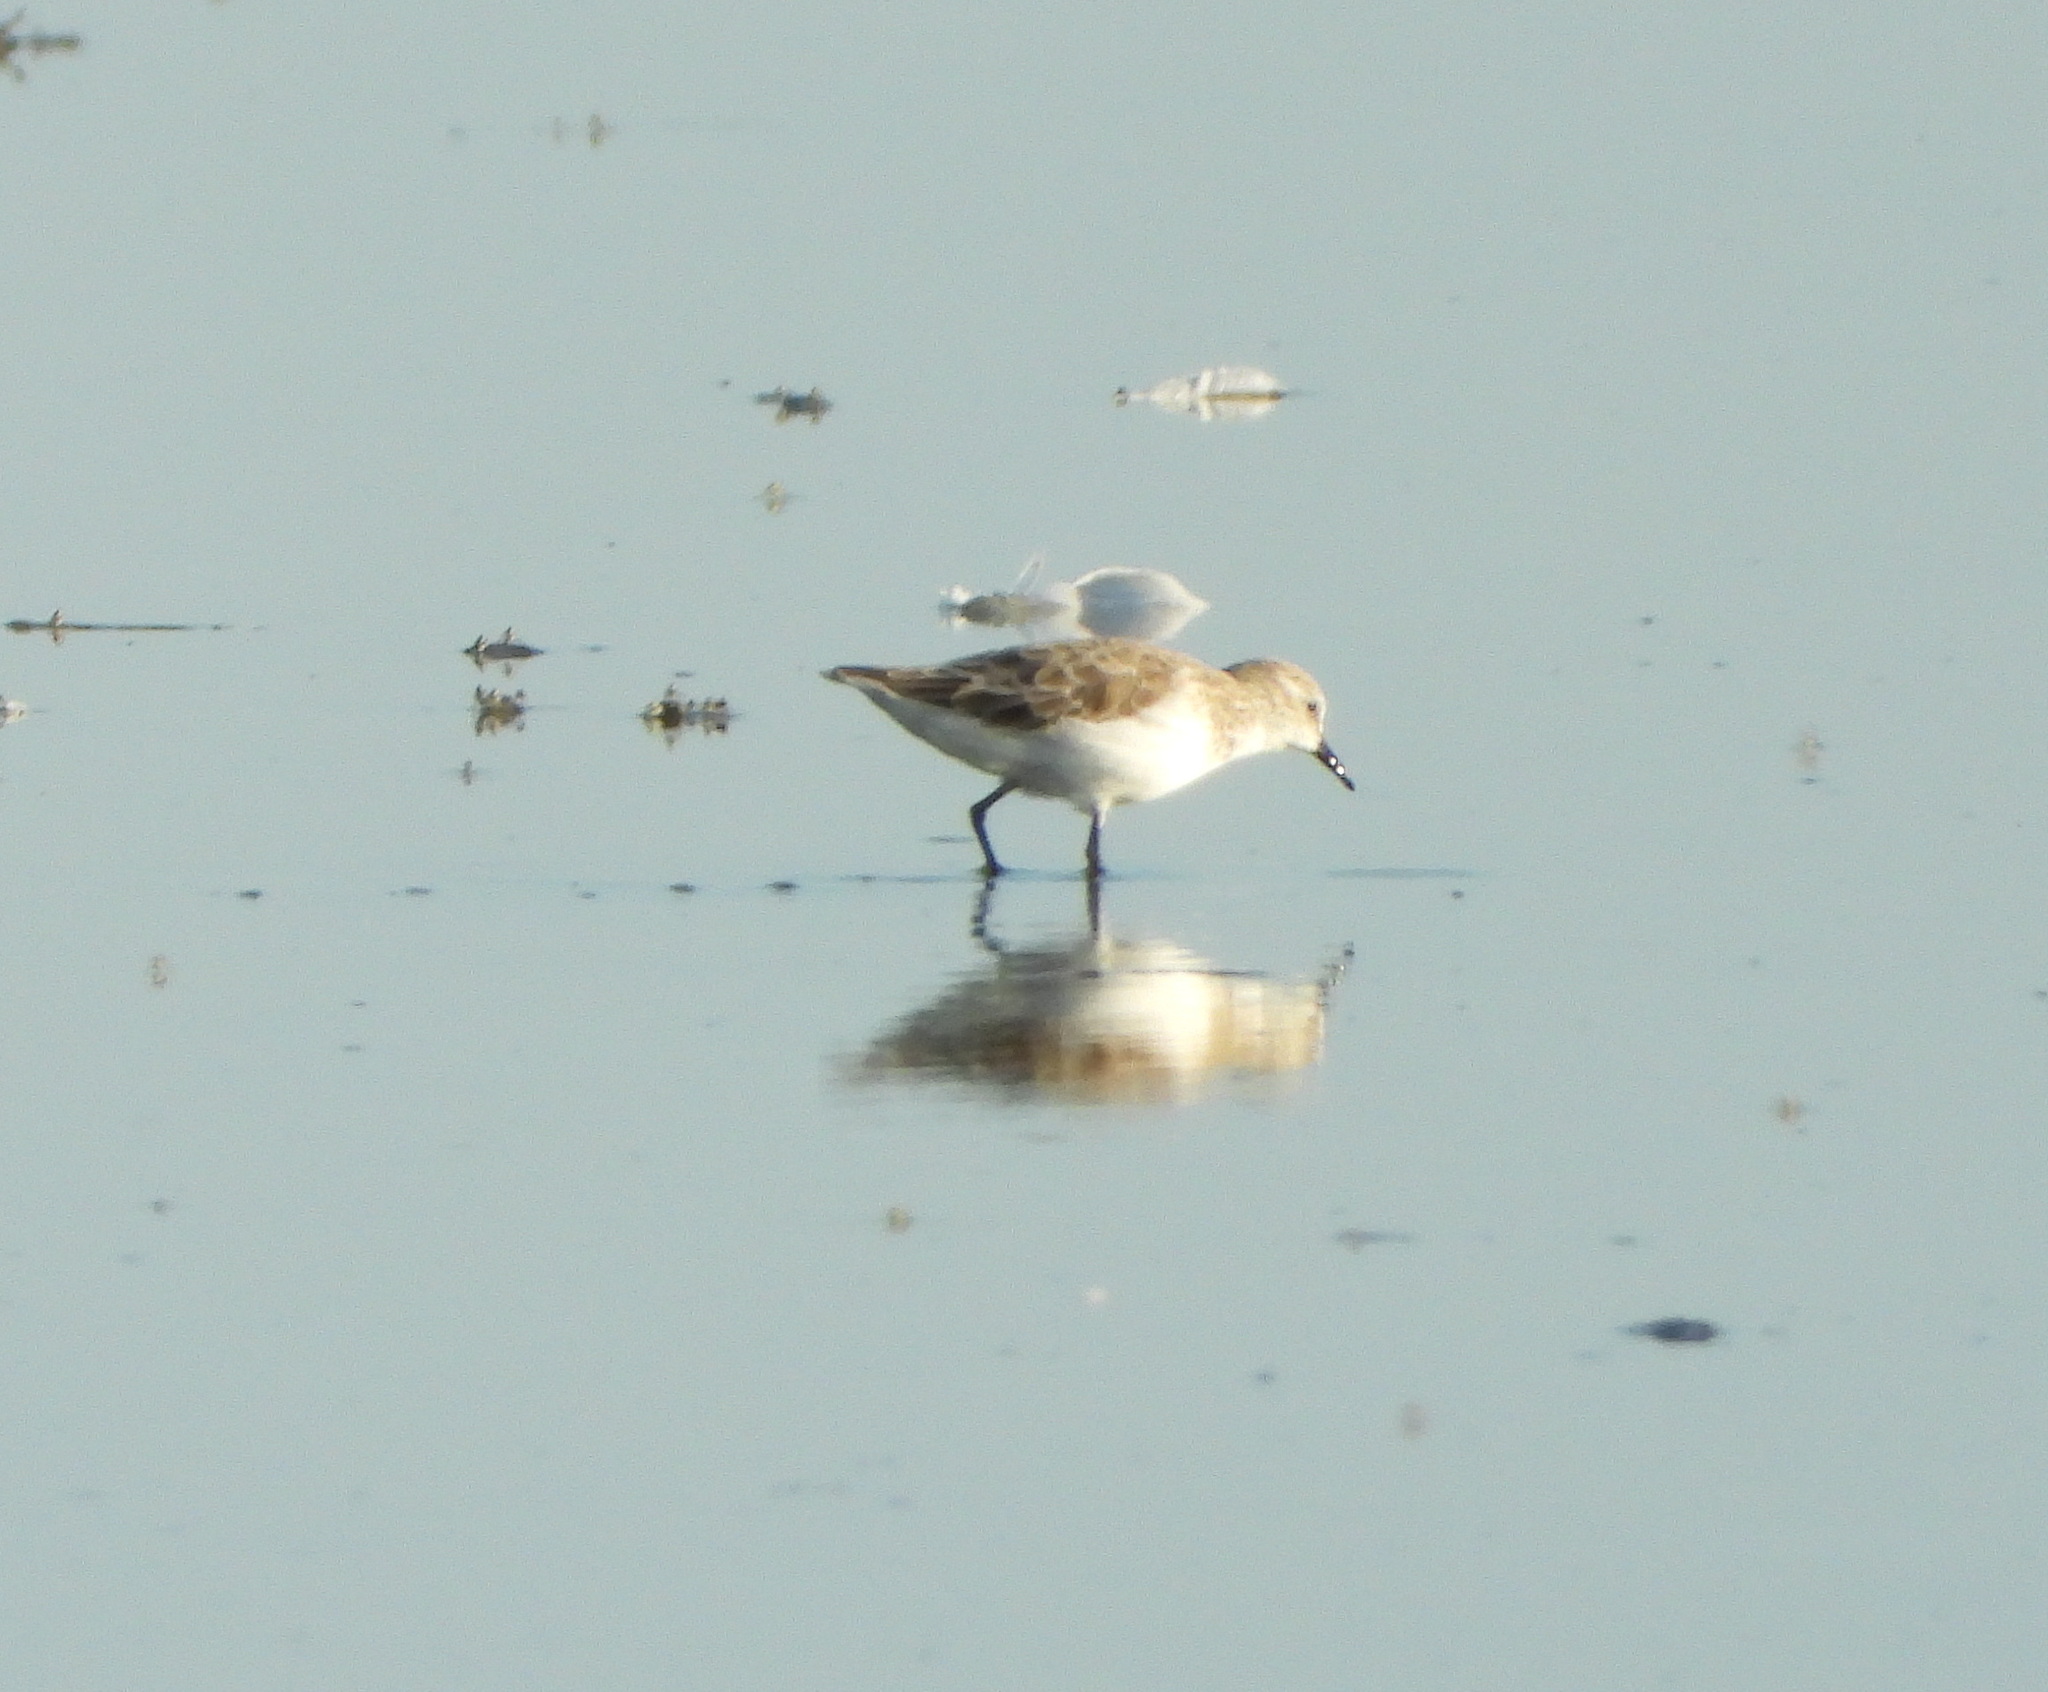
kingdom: Animalia
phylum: Chordata
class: Aves
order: Charadriiformes
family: Scolopacidae
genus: Calidris
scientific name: Calidris minuta
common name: Little stint
